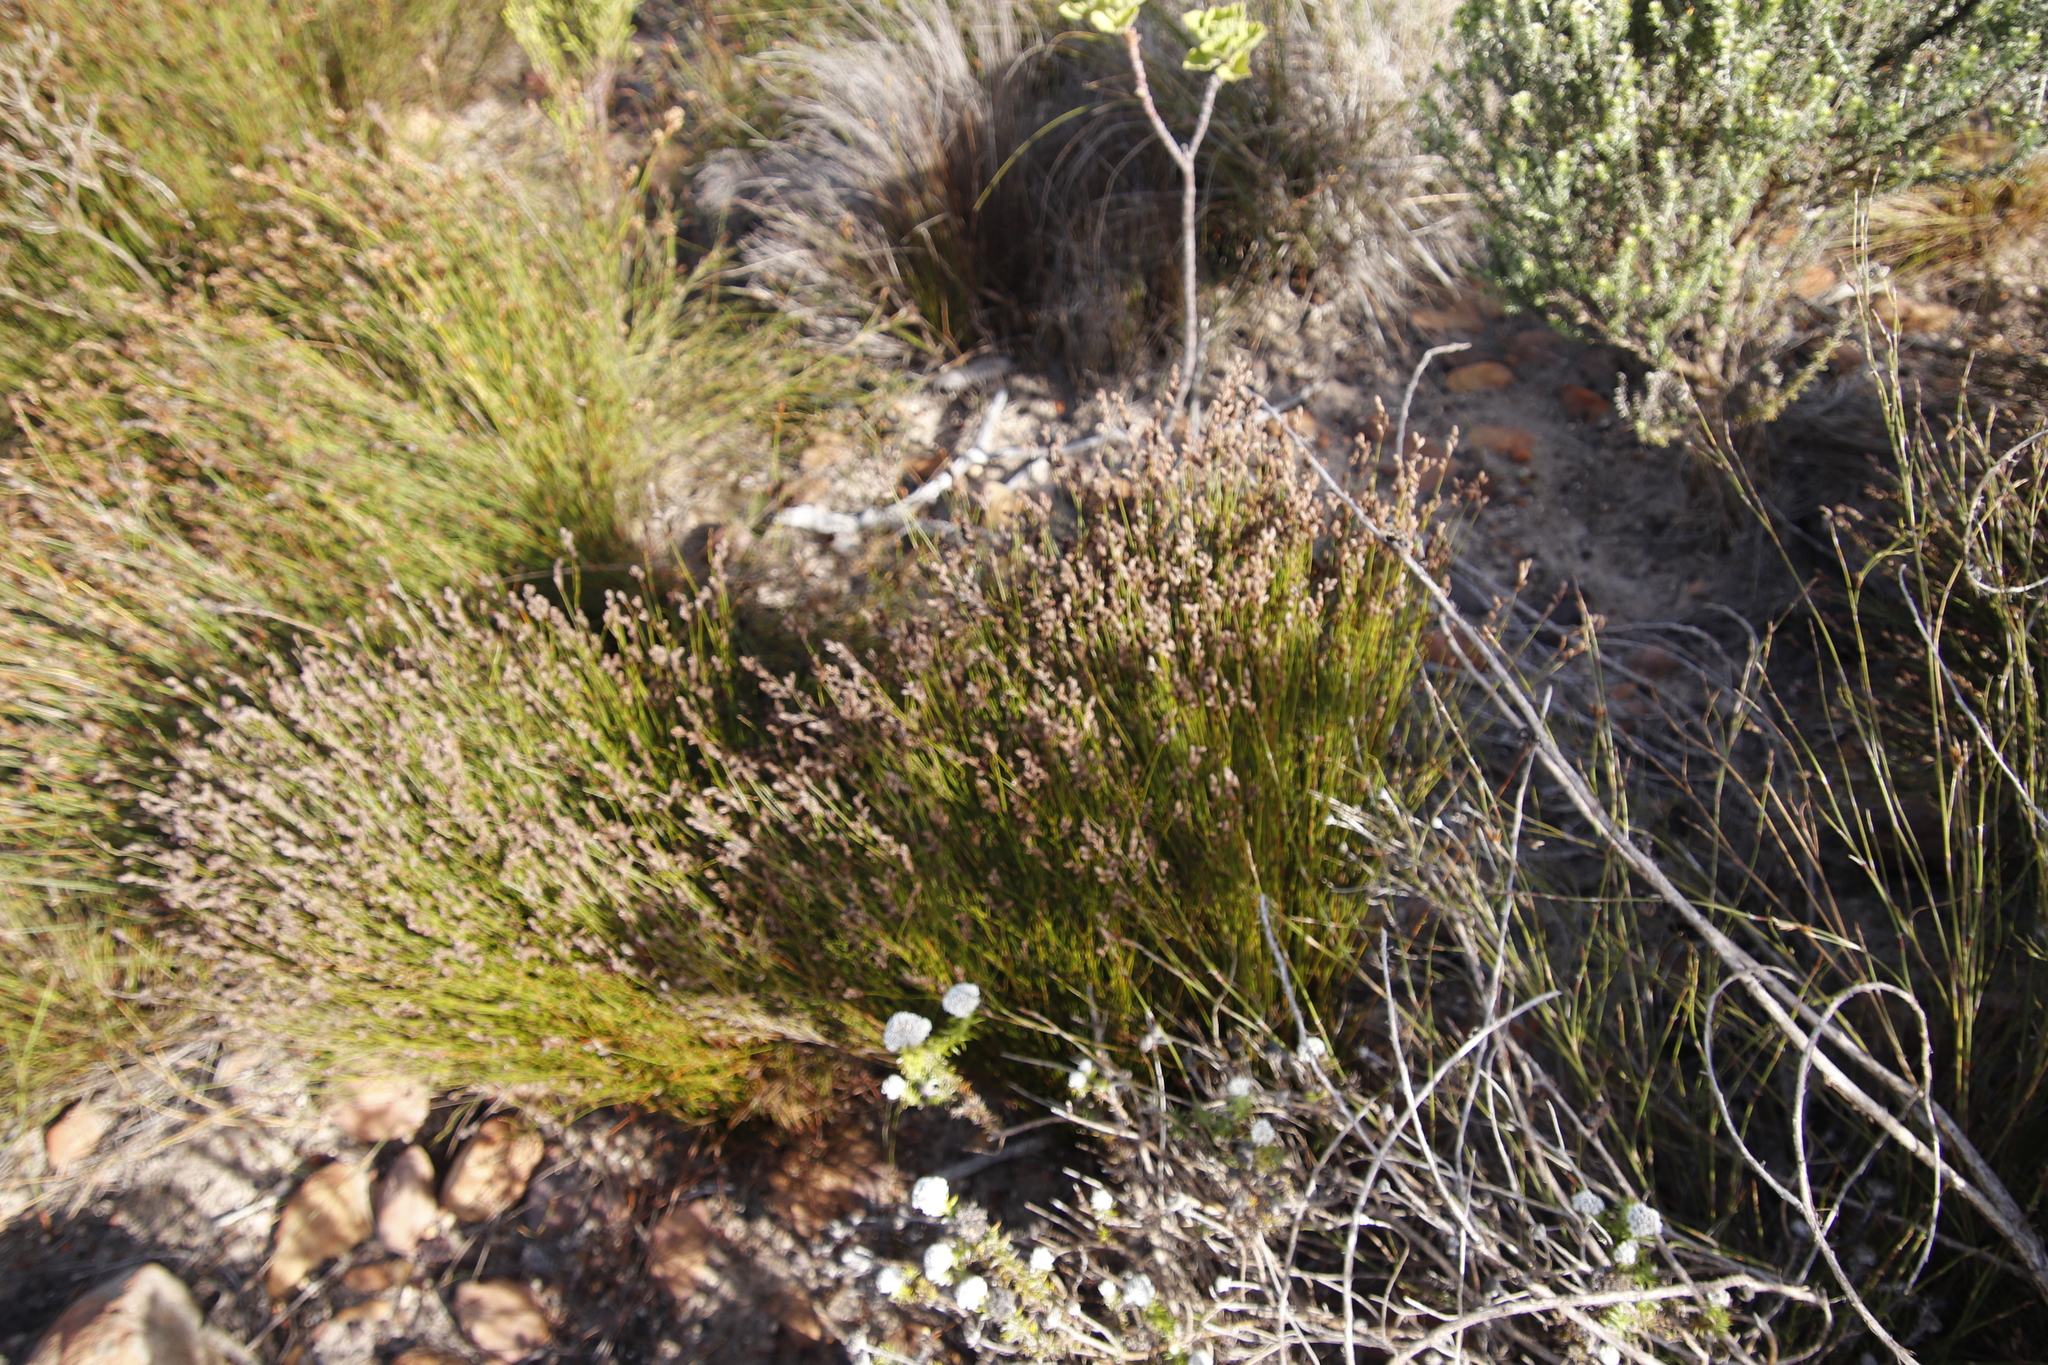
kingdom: Plantae
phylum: Tracheophyta
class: Liliopsida
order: Poales
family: Restionaceae
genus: Restio
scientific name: Restio filiformis
